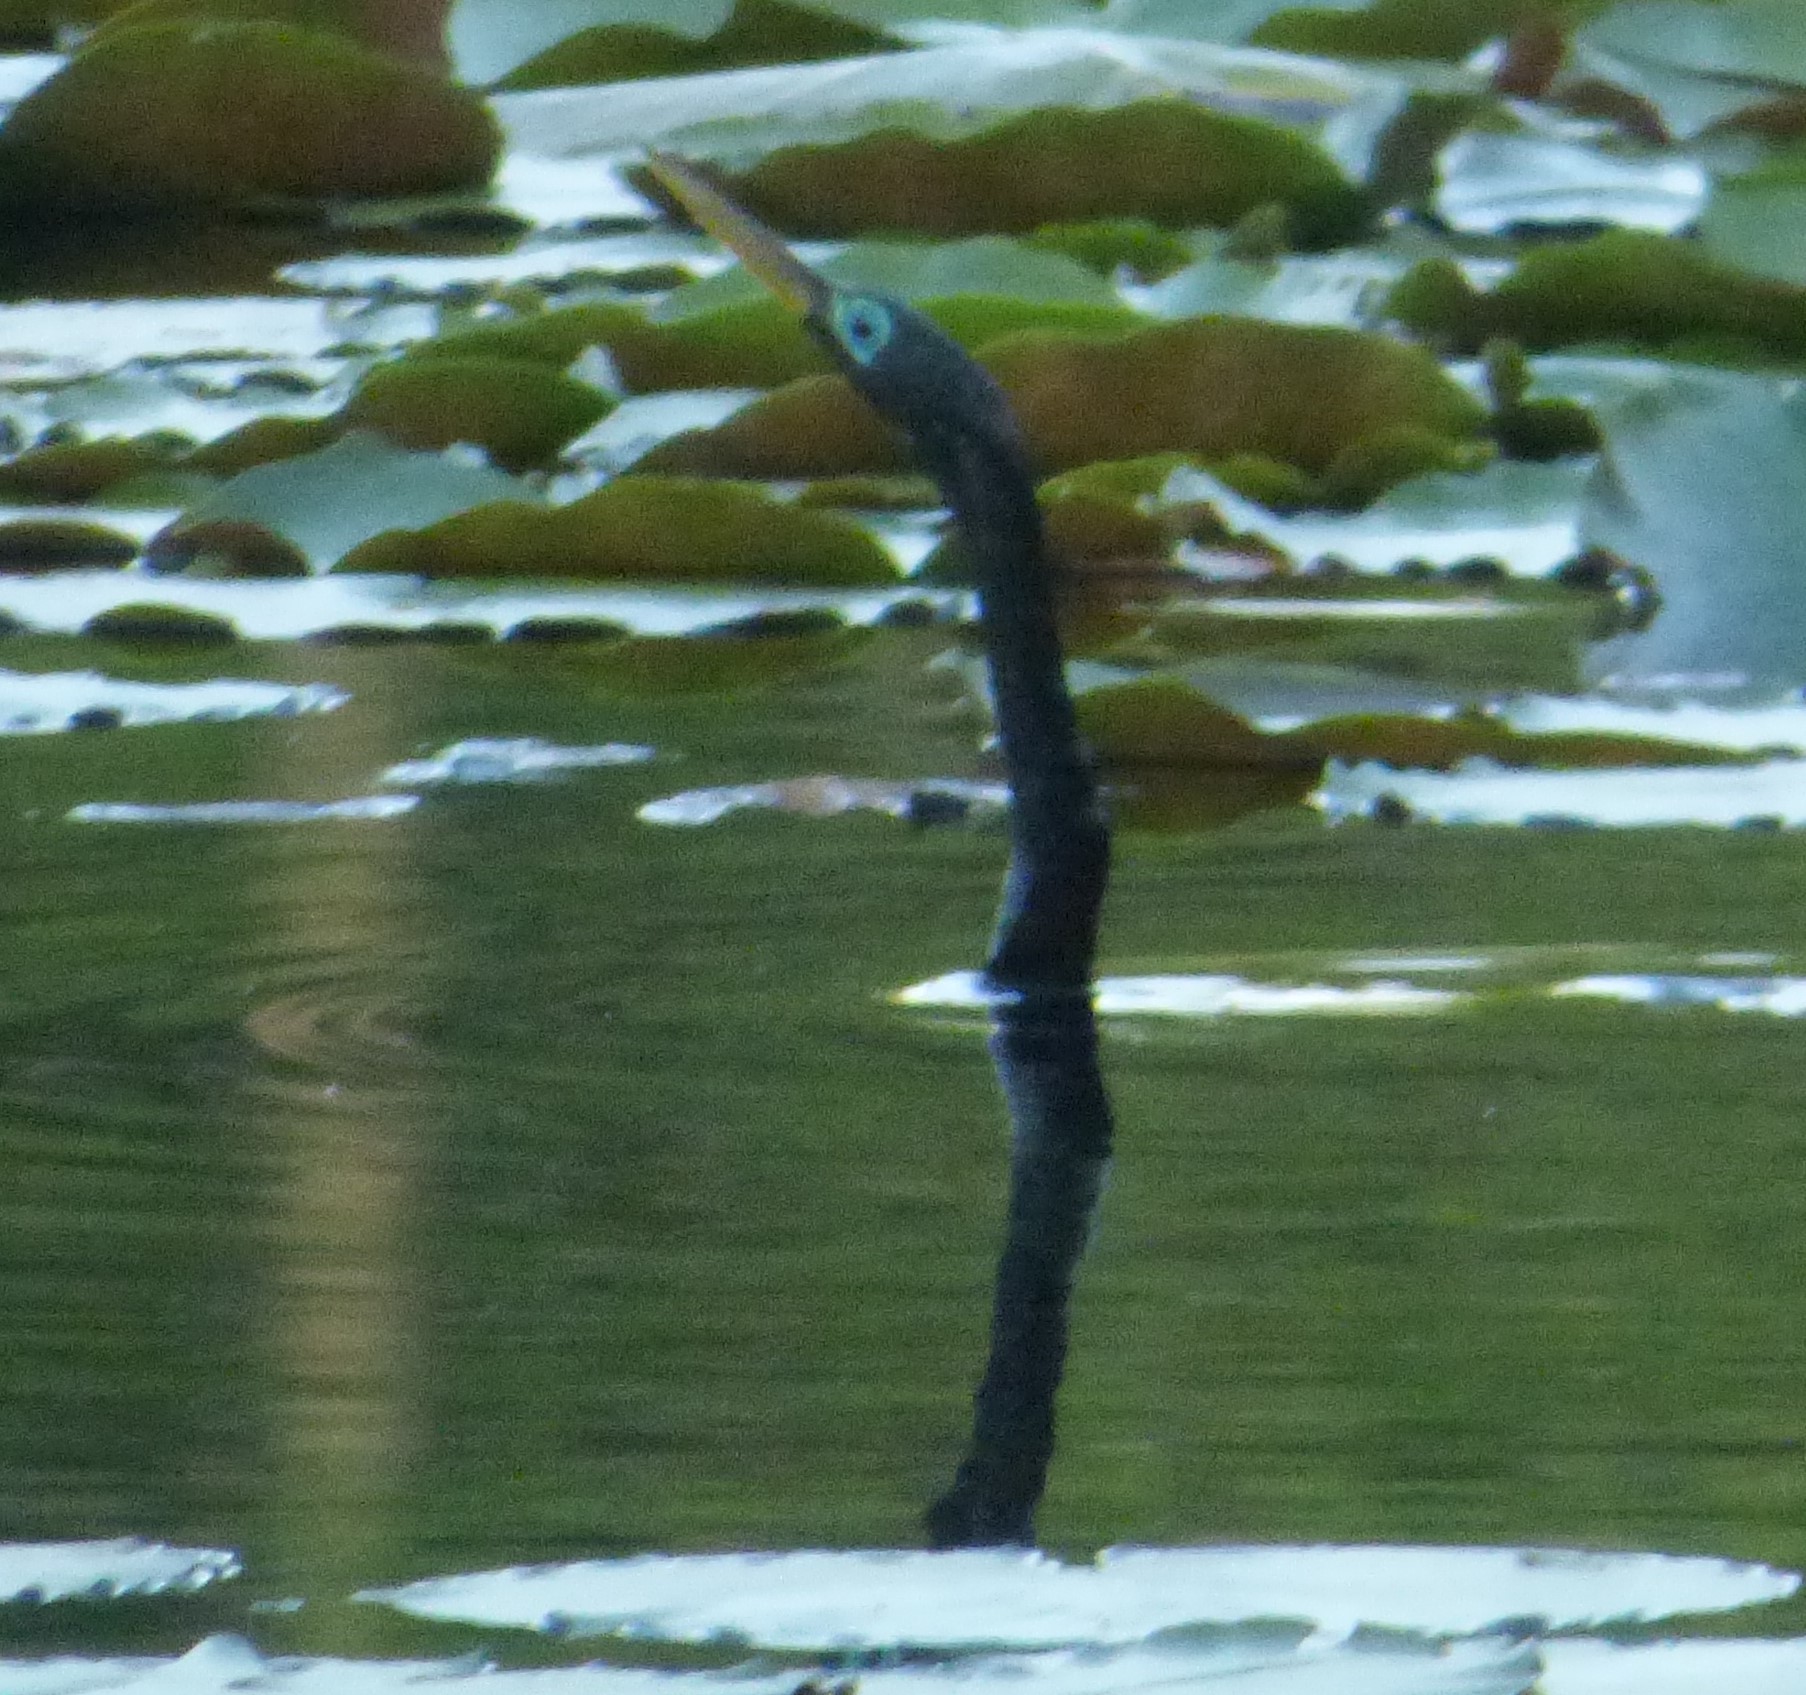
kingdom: Animalia
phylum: Chordata
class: Aves
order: Suliformes
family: Anhingidae
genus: Anhinga
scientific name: Anhinga anhinga
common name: Anhinga
